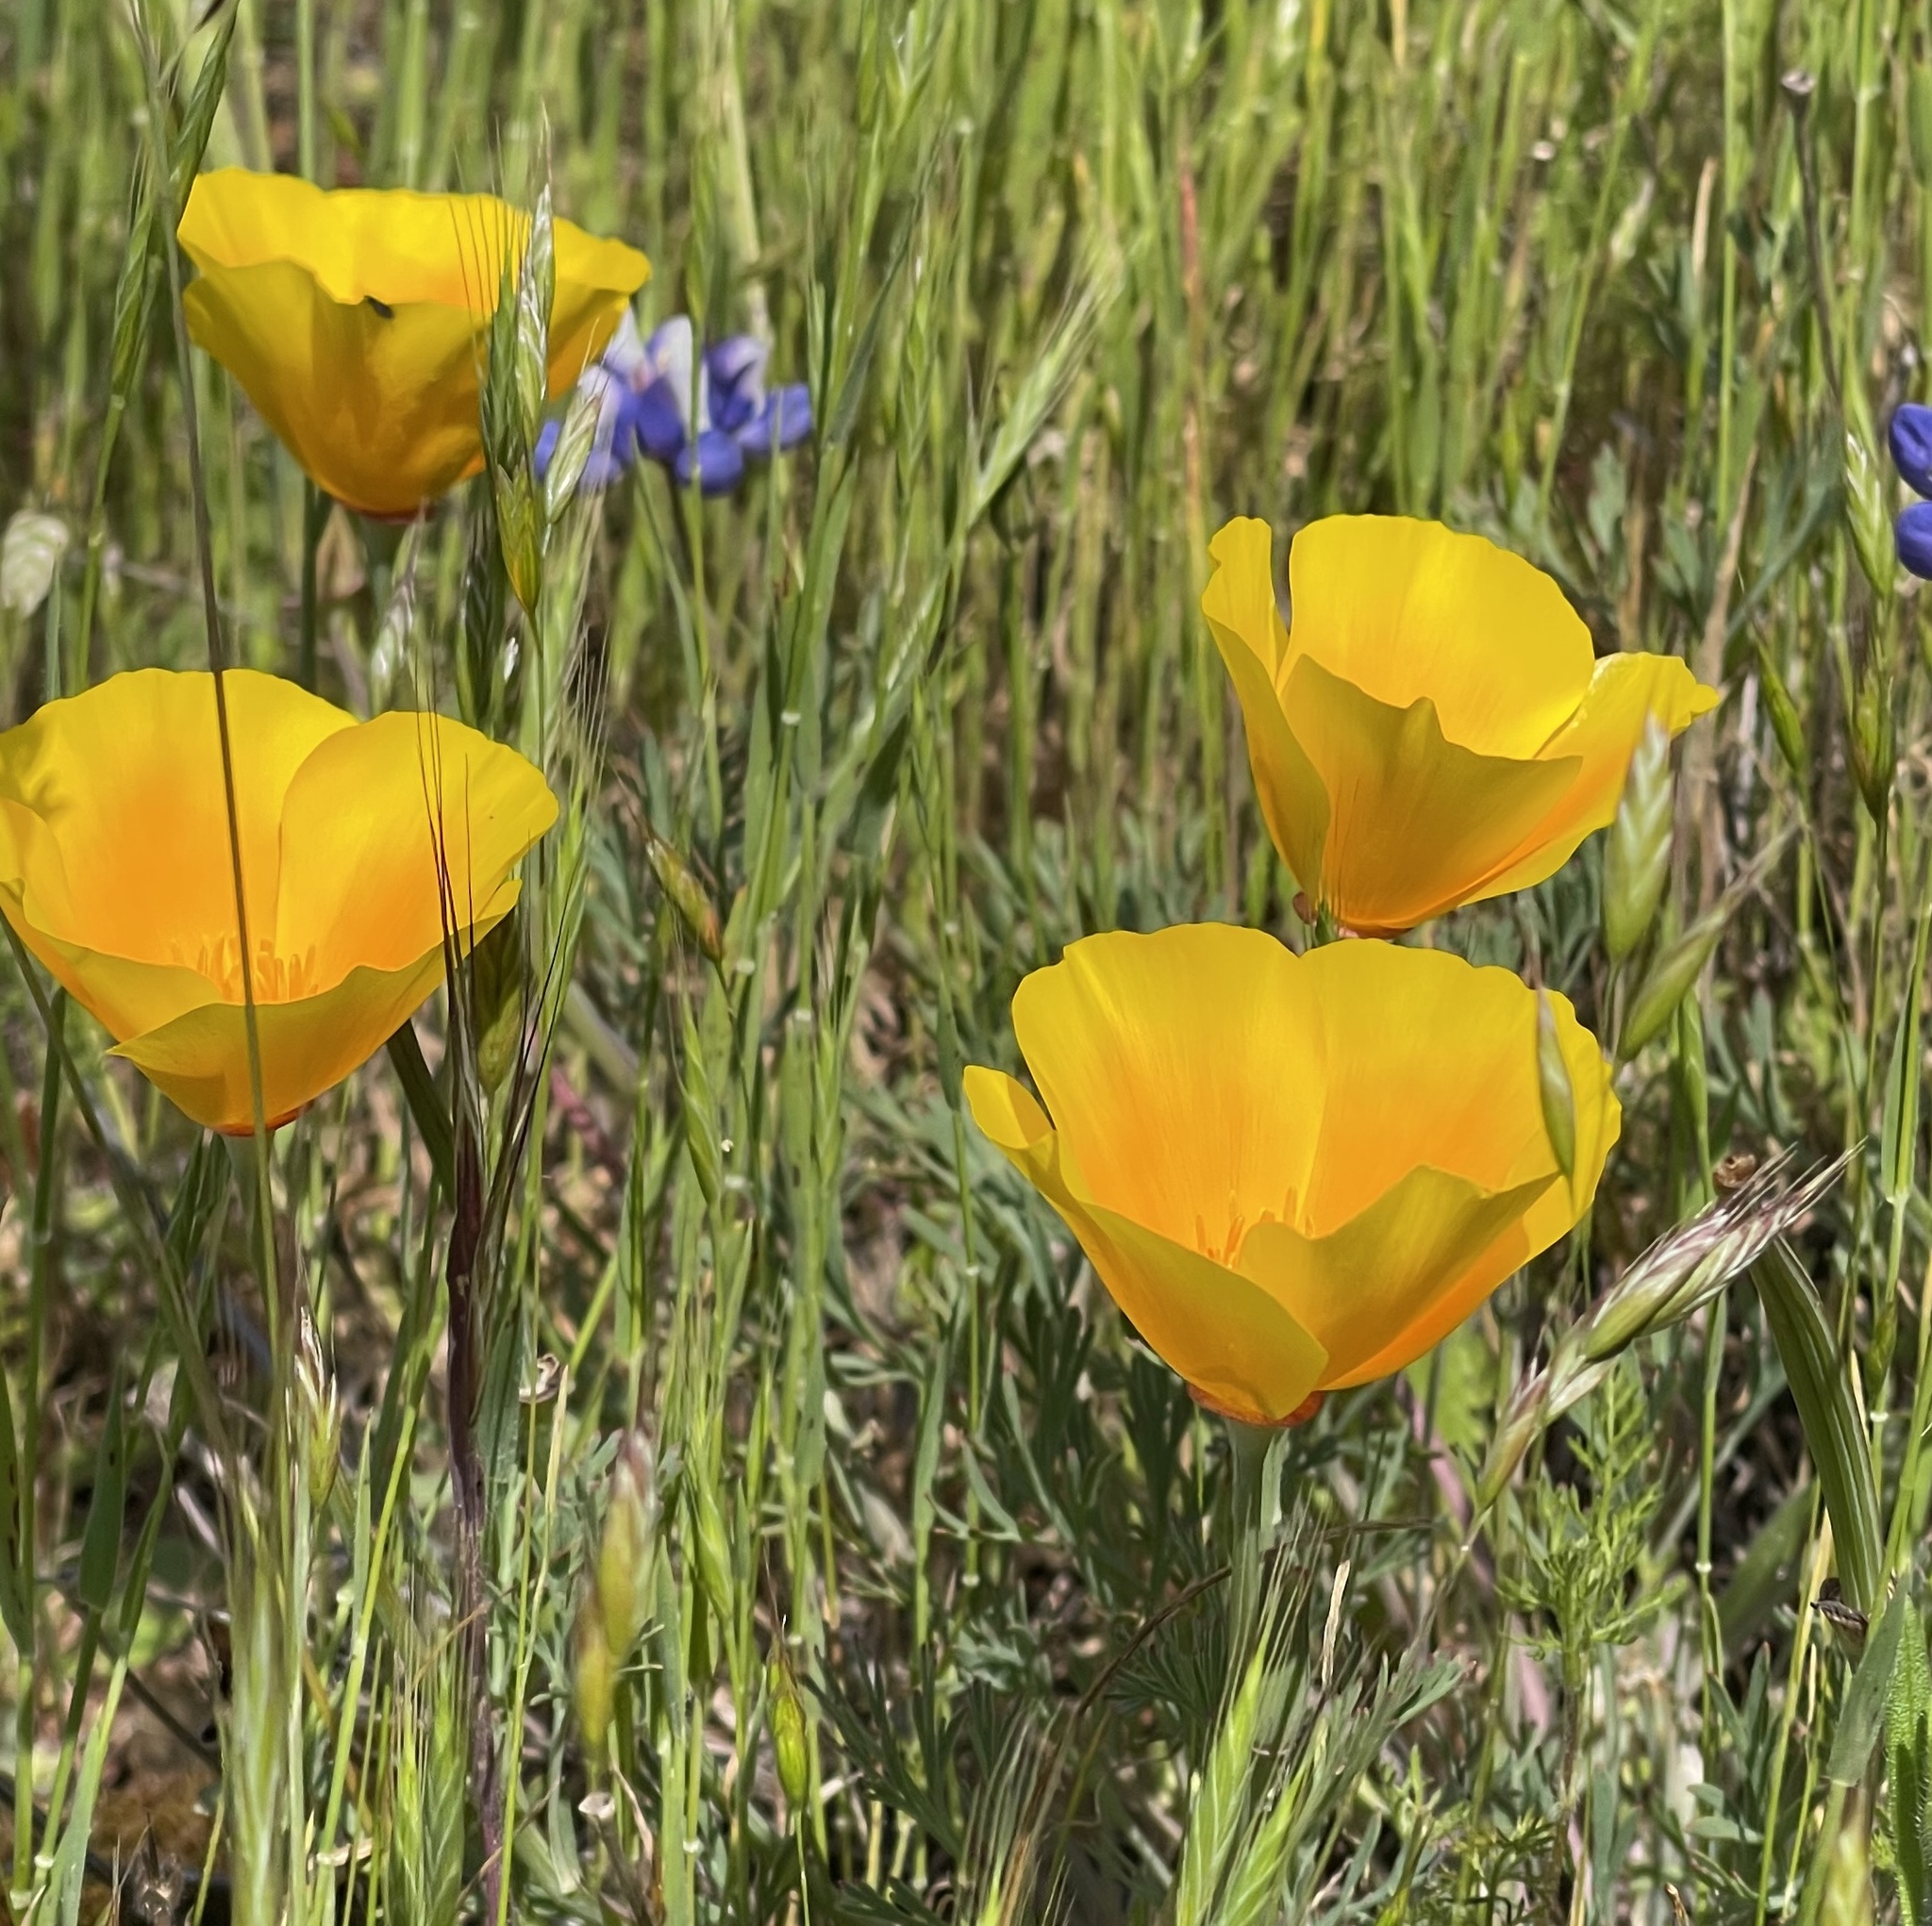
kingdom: Plantae
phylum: Tracheophyta
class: Magnoliopsida
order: Ranunculales
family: Papaveraceae
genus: Eschscholzia
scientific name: Eschscholzia californica
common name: California poppy
